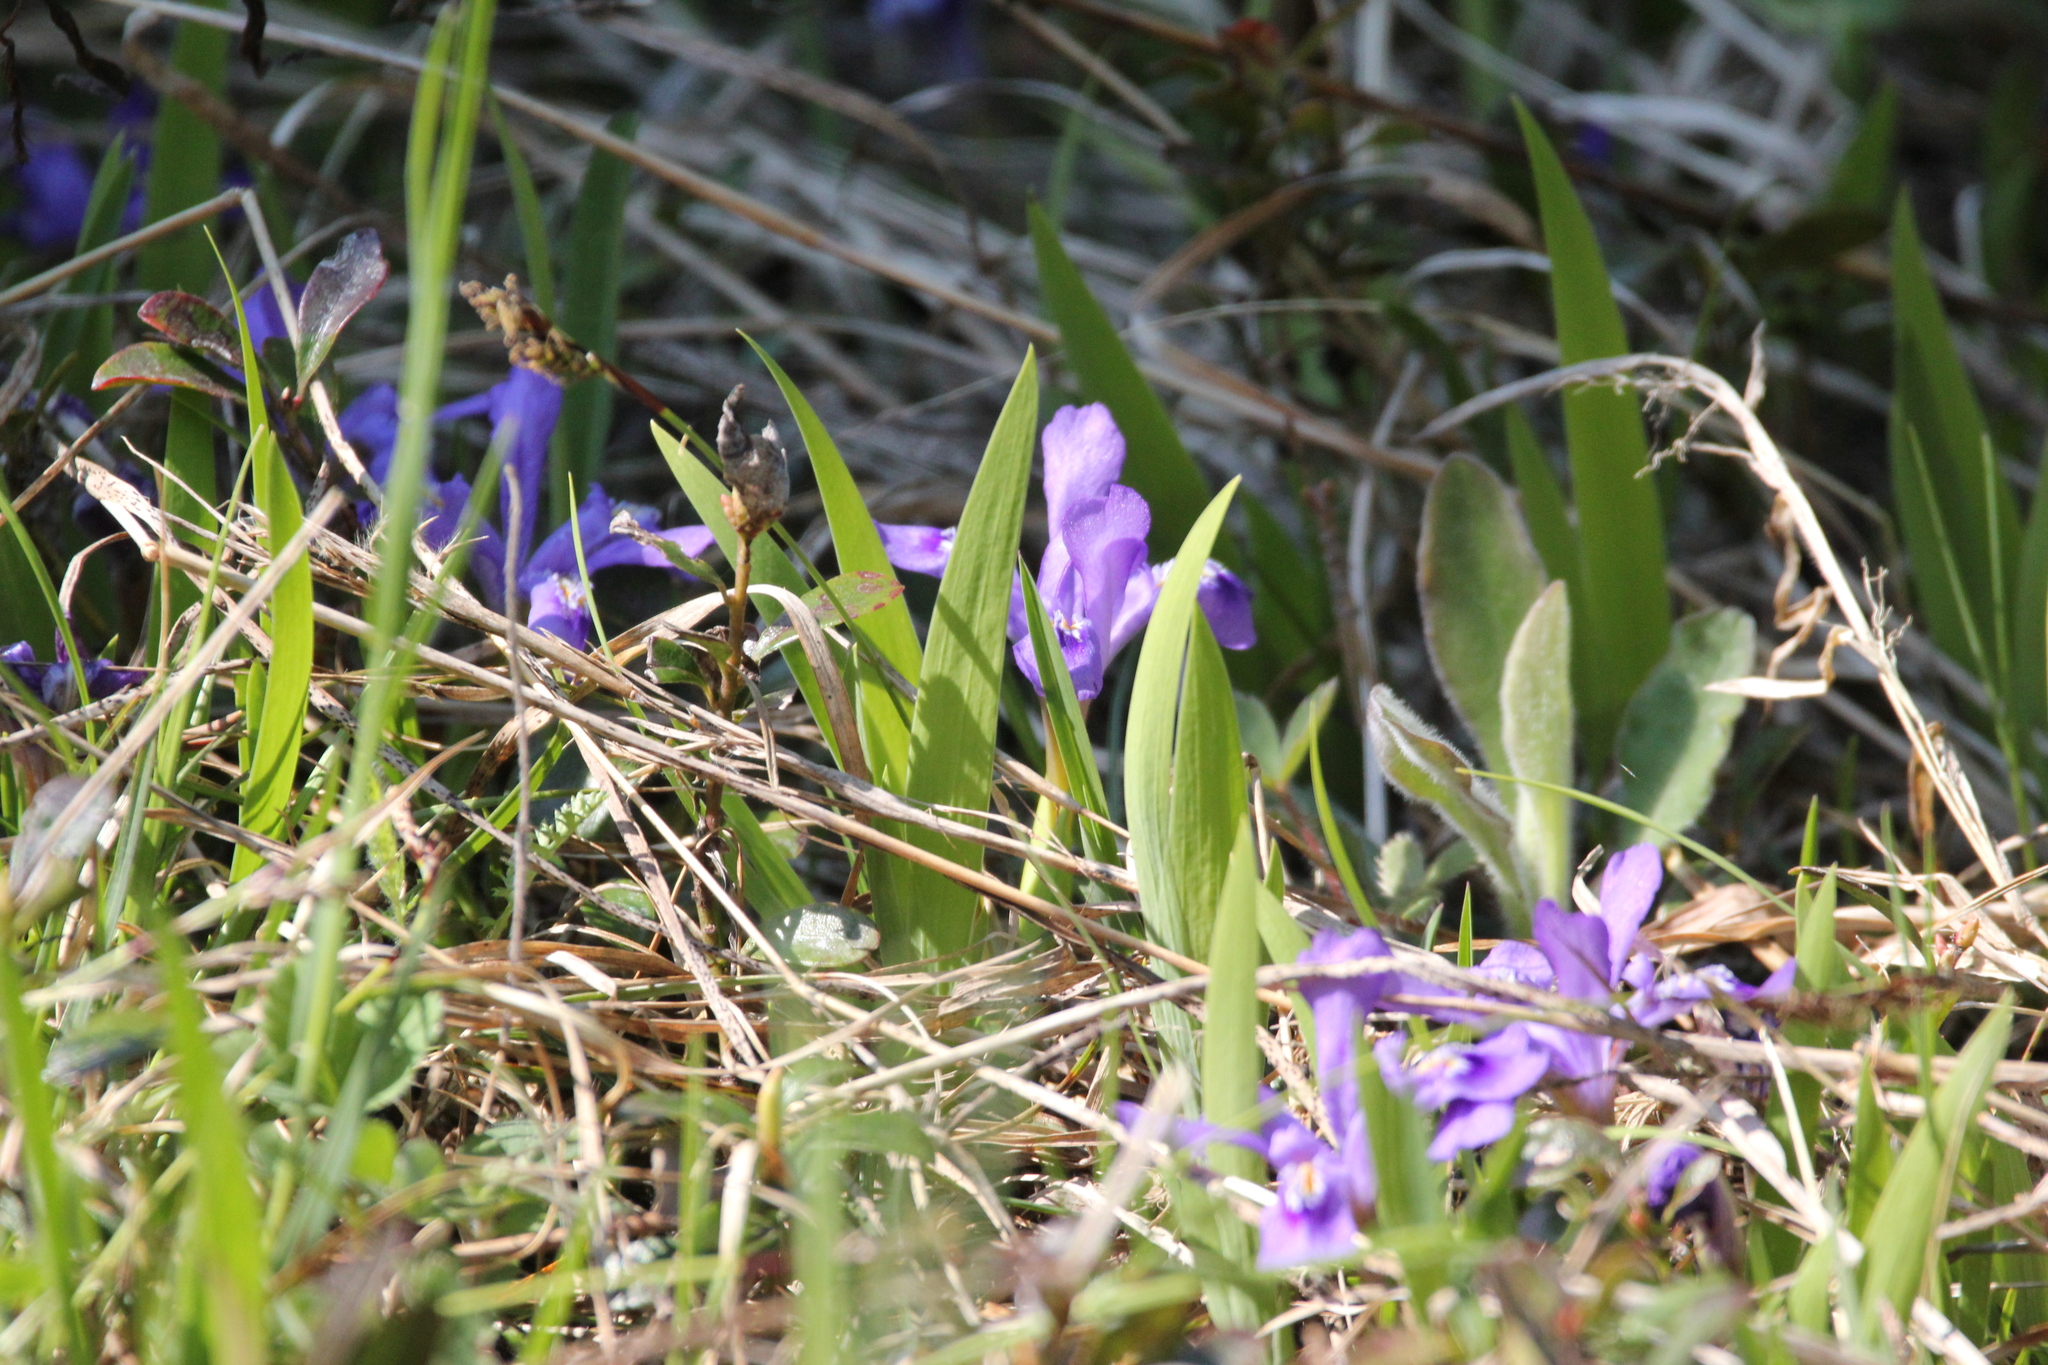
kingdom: Plantae
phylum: Tracheophyta
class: Liliopsida
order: Asparagales
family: Iridaceae
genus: Iris
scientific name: Iris lacustris
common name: Dwarf lake iris
